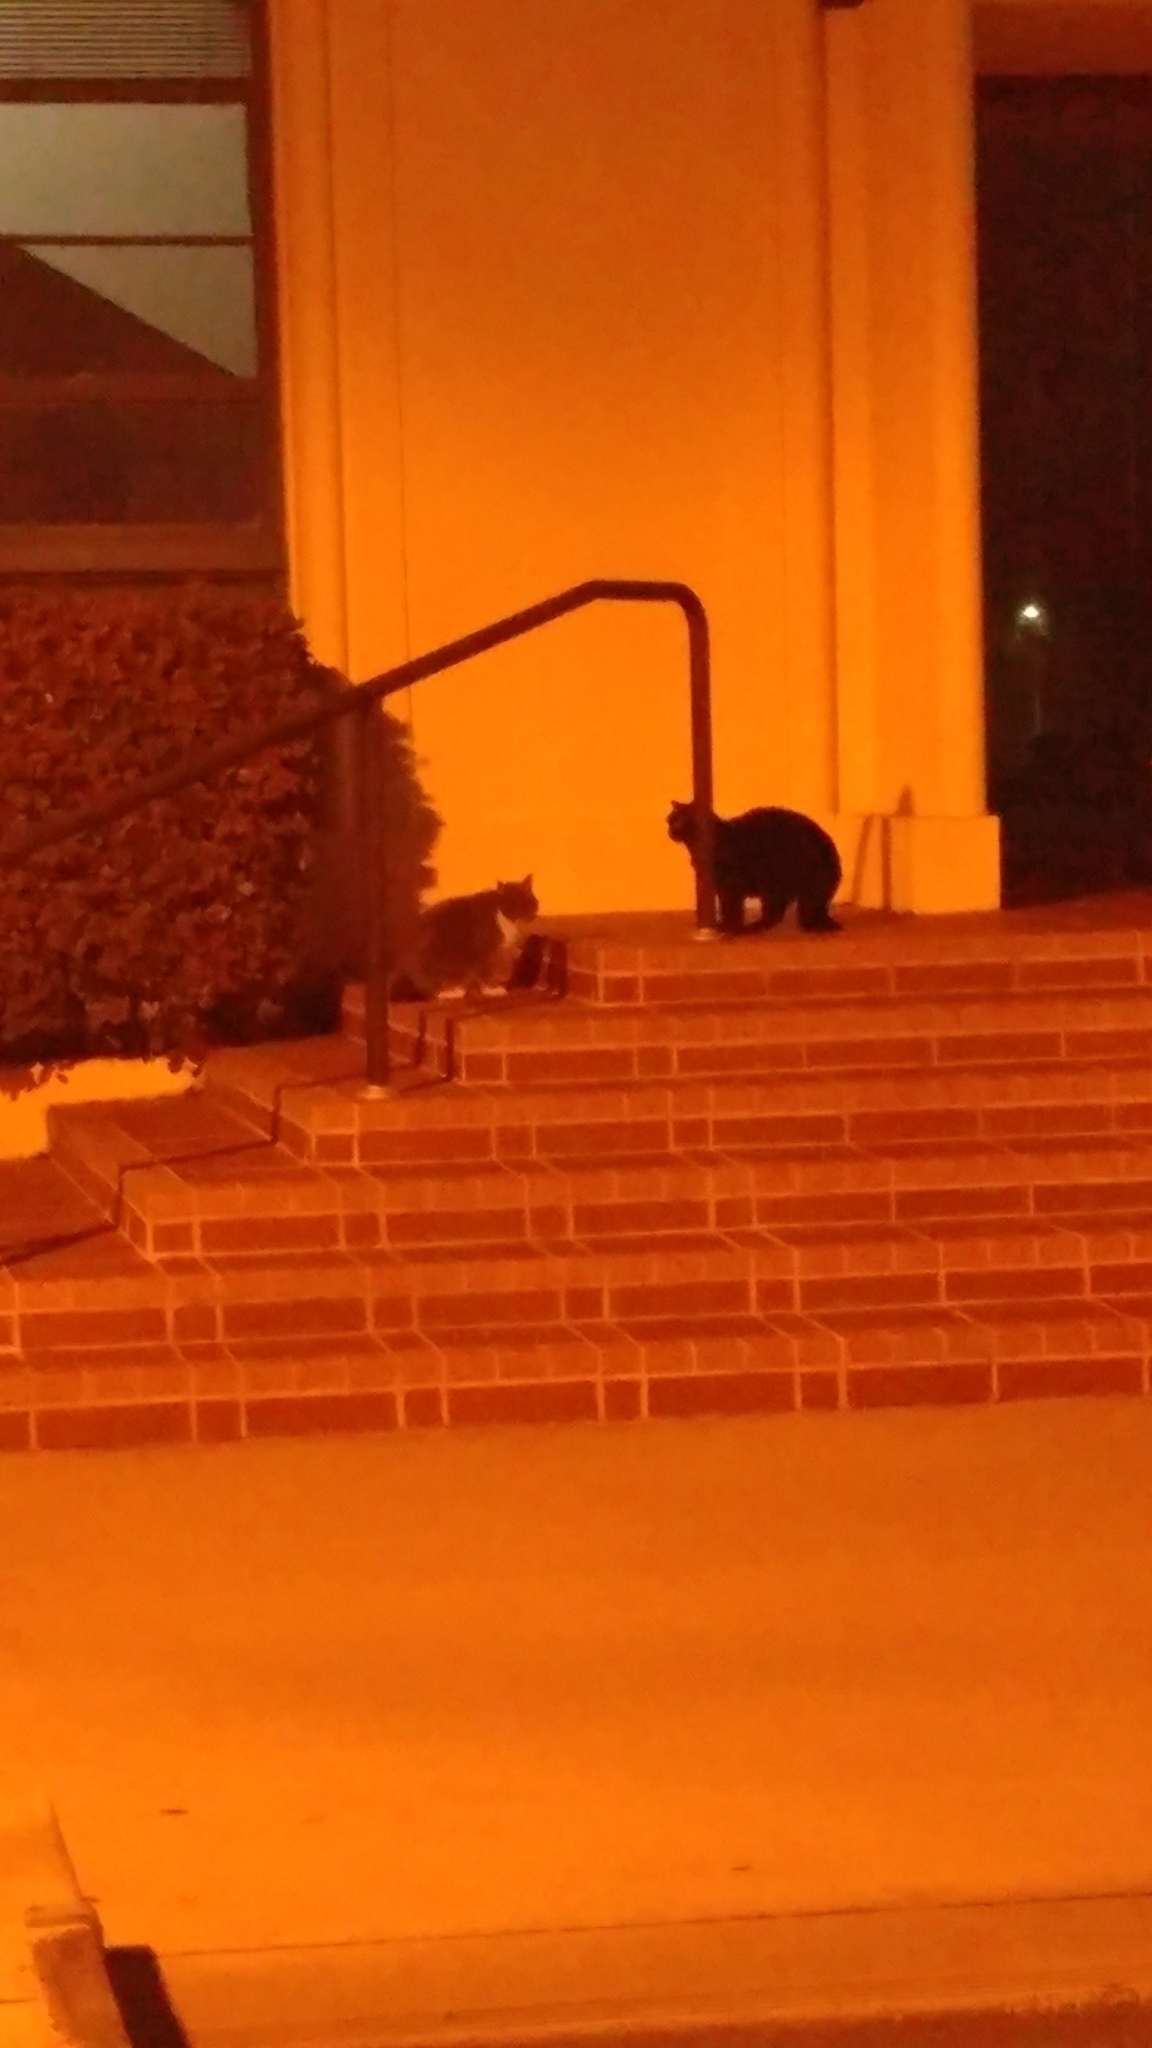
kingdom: Animalia
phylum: Chordata
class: Mammalia
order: Carnivora
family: Felidae
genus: Felis
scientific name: Felis catus
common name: Domestic cat
